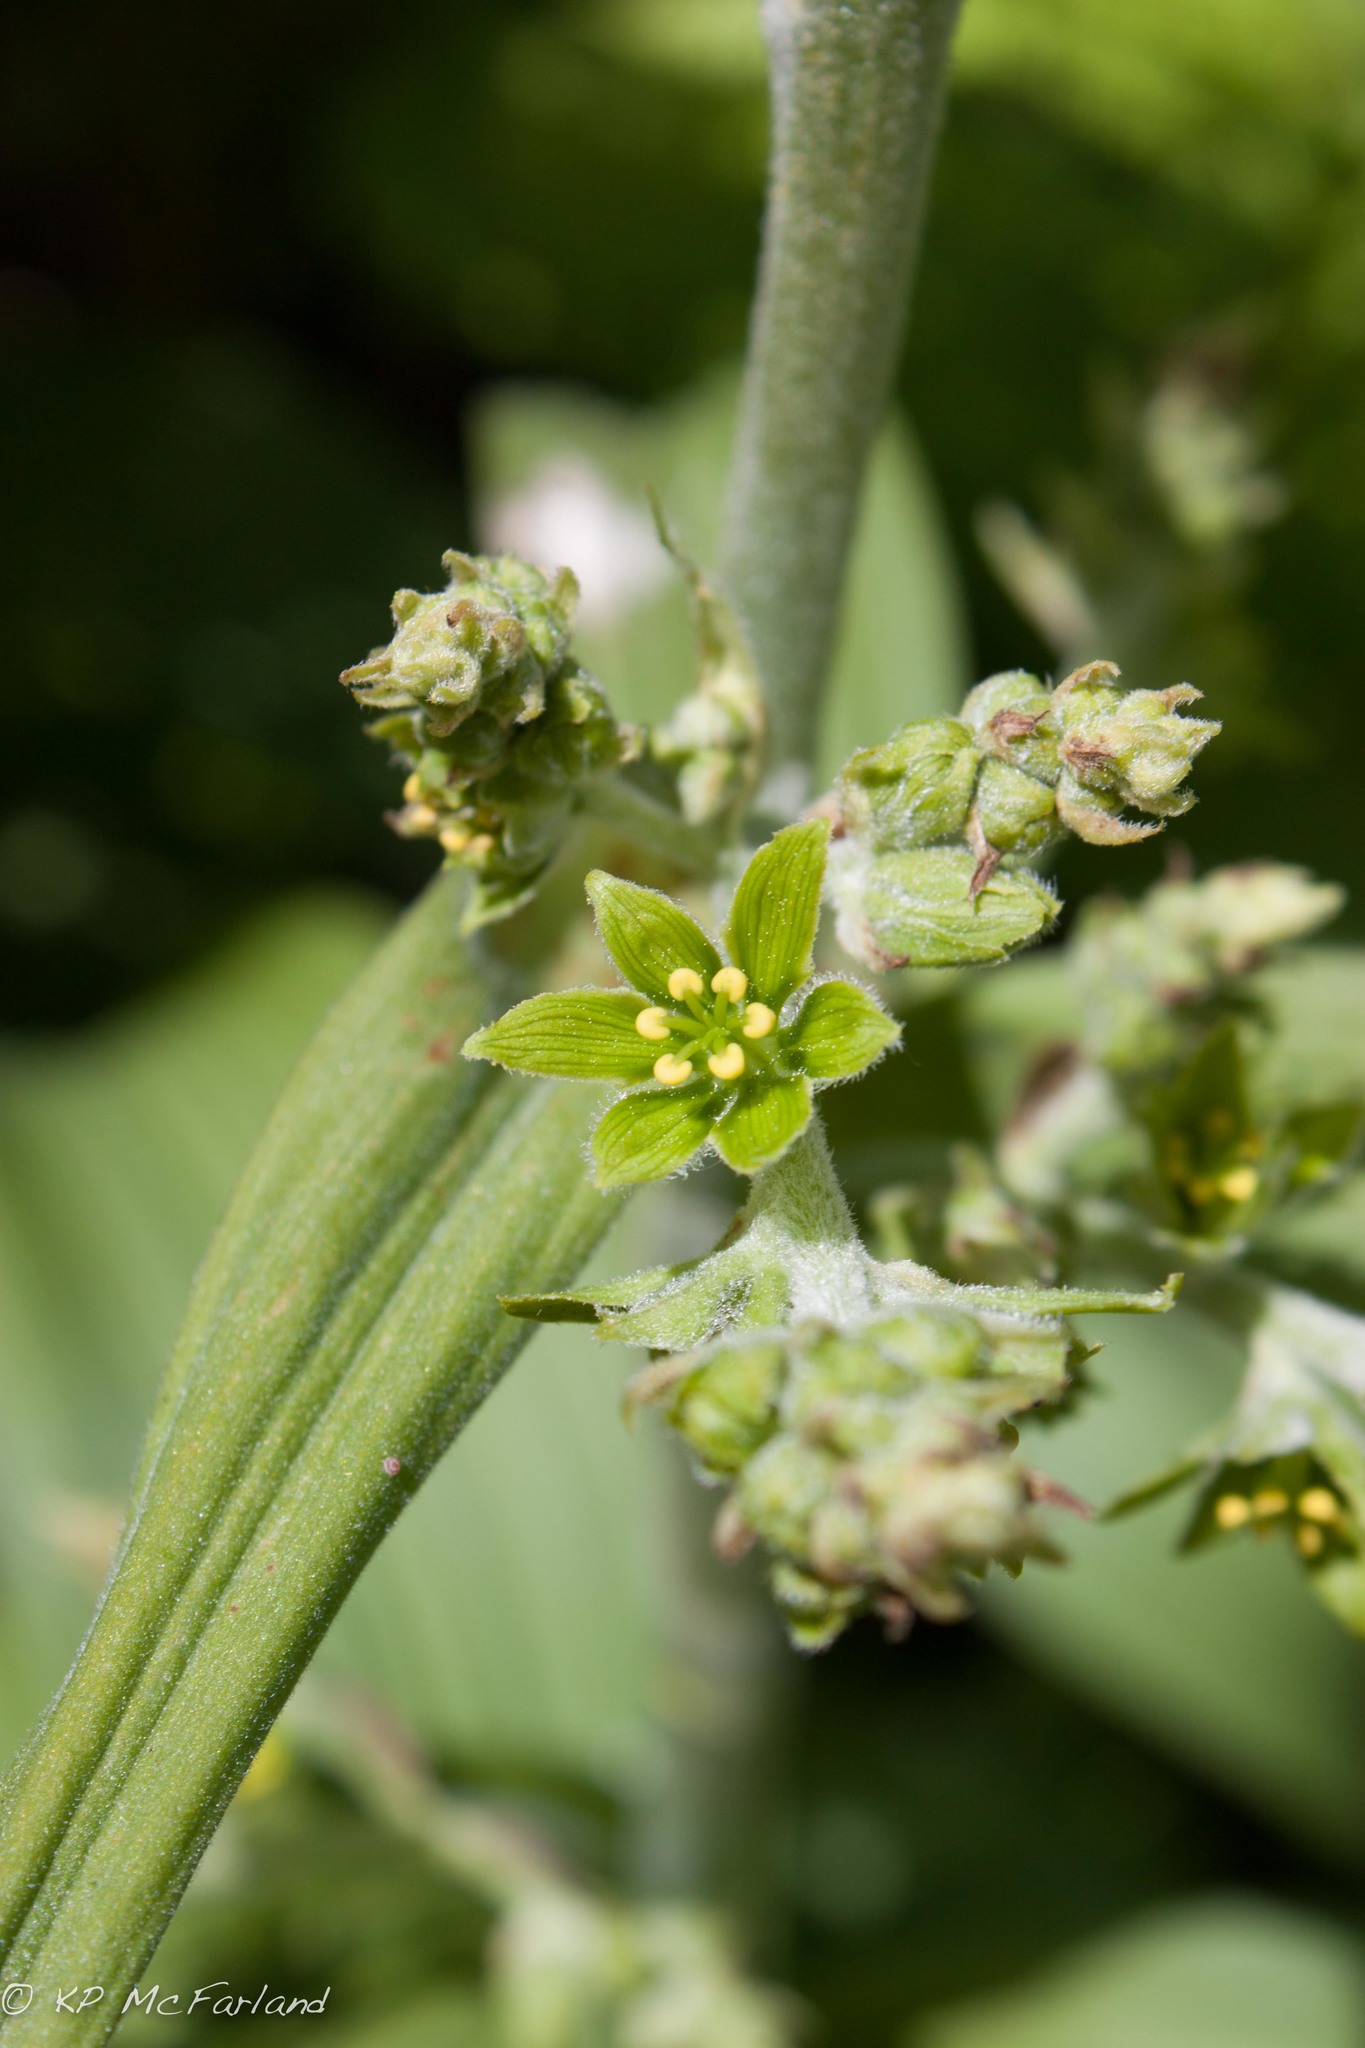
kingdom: Plantae
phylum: Tracheophyta
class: Liliopsida
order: Liliales
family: Melanthiaceae
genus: Veratrum
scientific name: Veratrum viride
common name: American false hellebore
